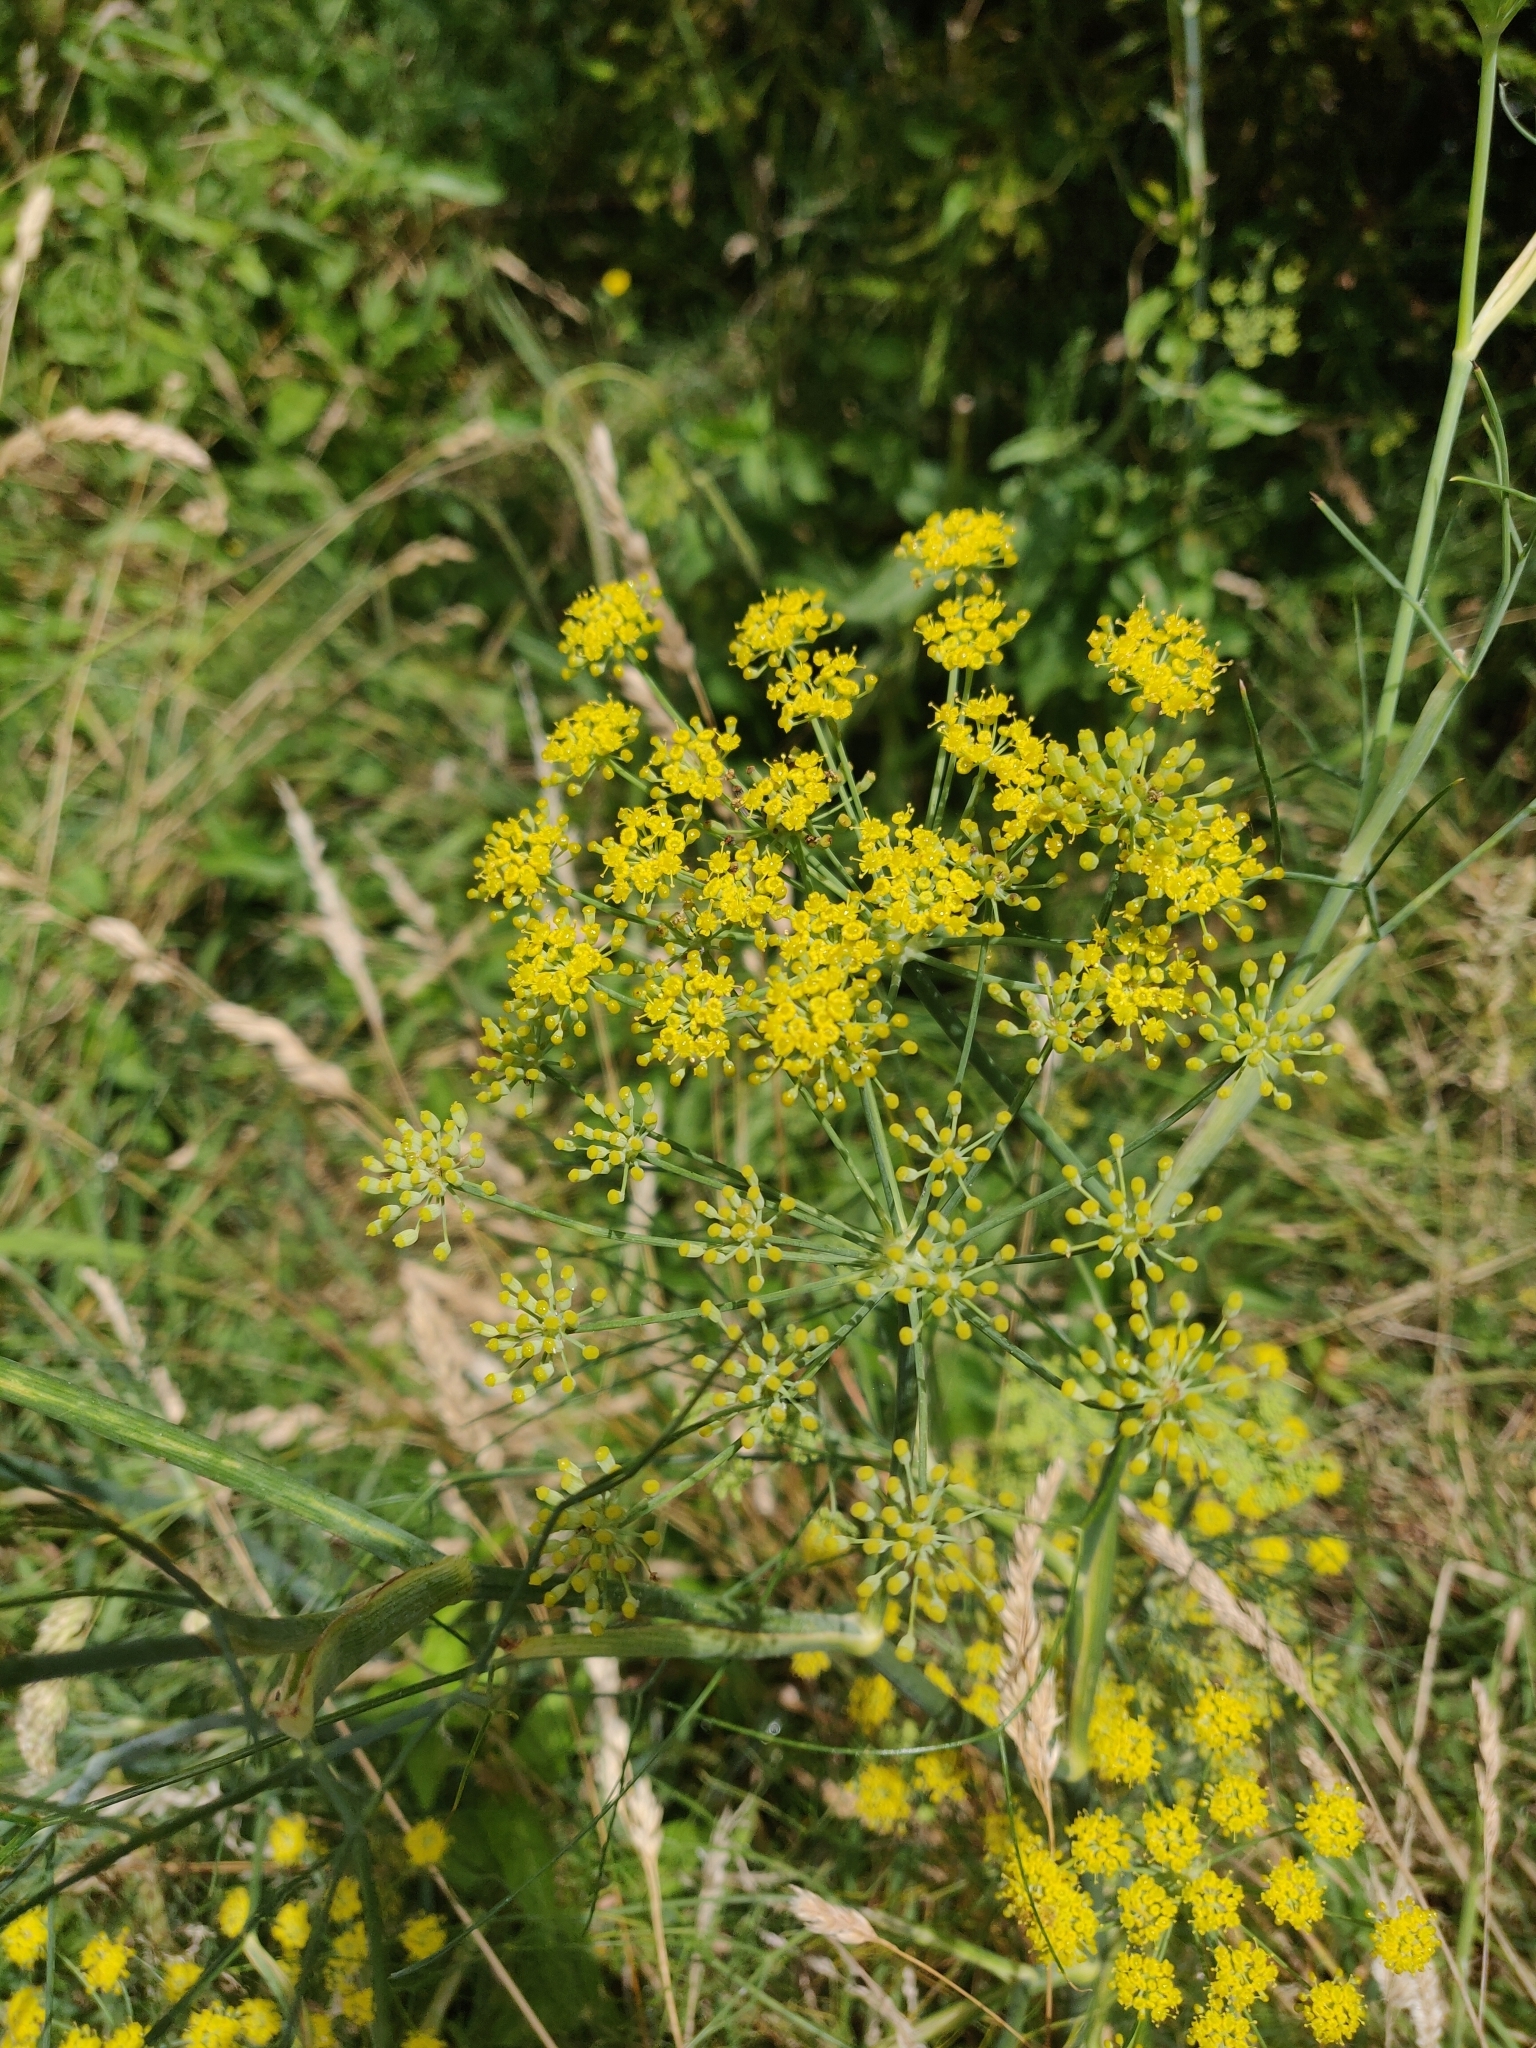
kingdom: Plantae
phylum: Tracheophyta
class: Magnoliopsida
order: Apiales
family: Apiaceae
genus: Foeniculum
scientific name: Foeniculum vulgare
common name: Fennel
